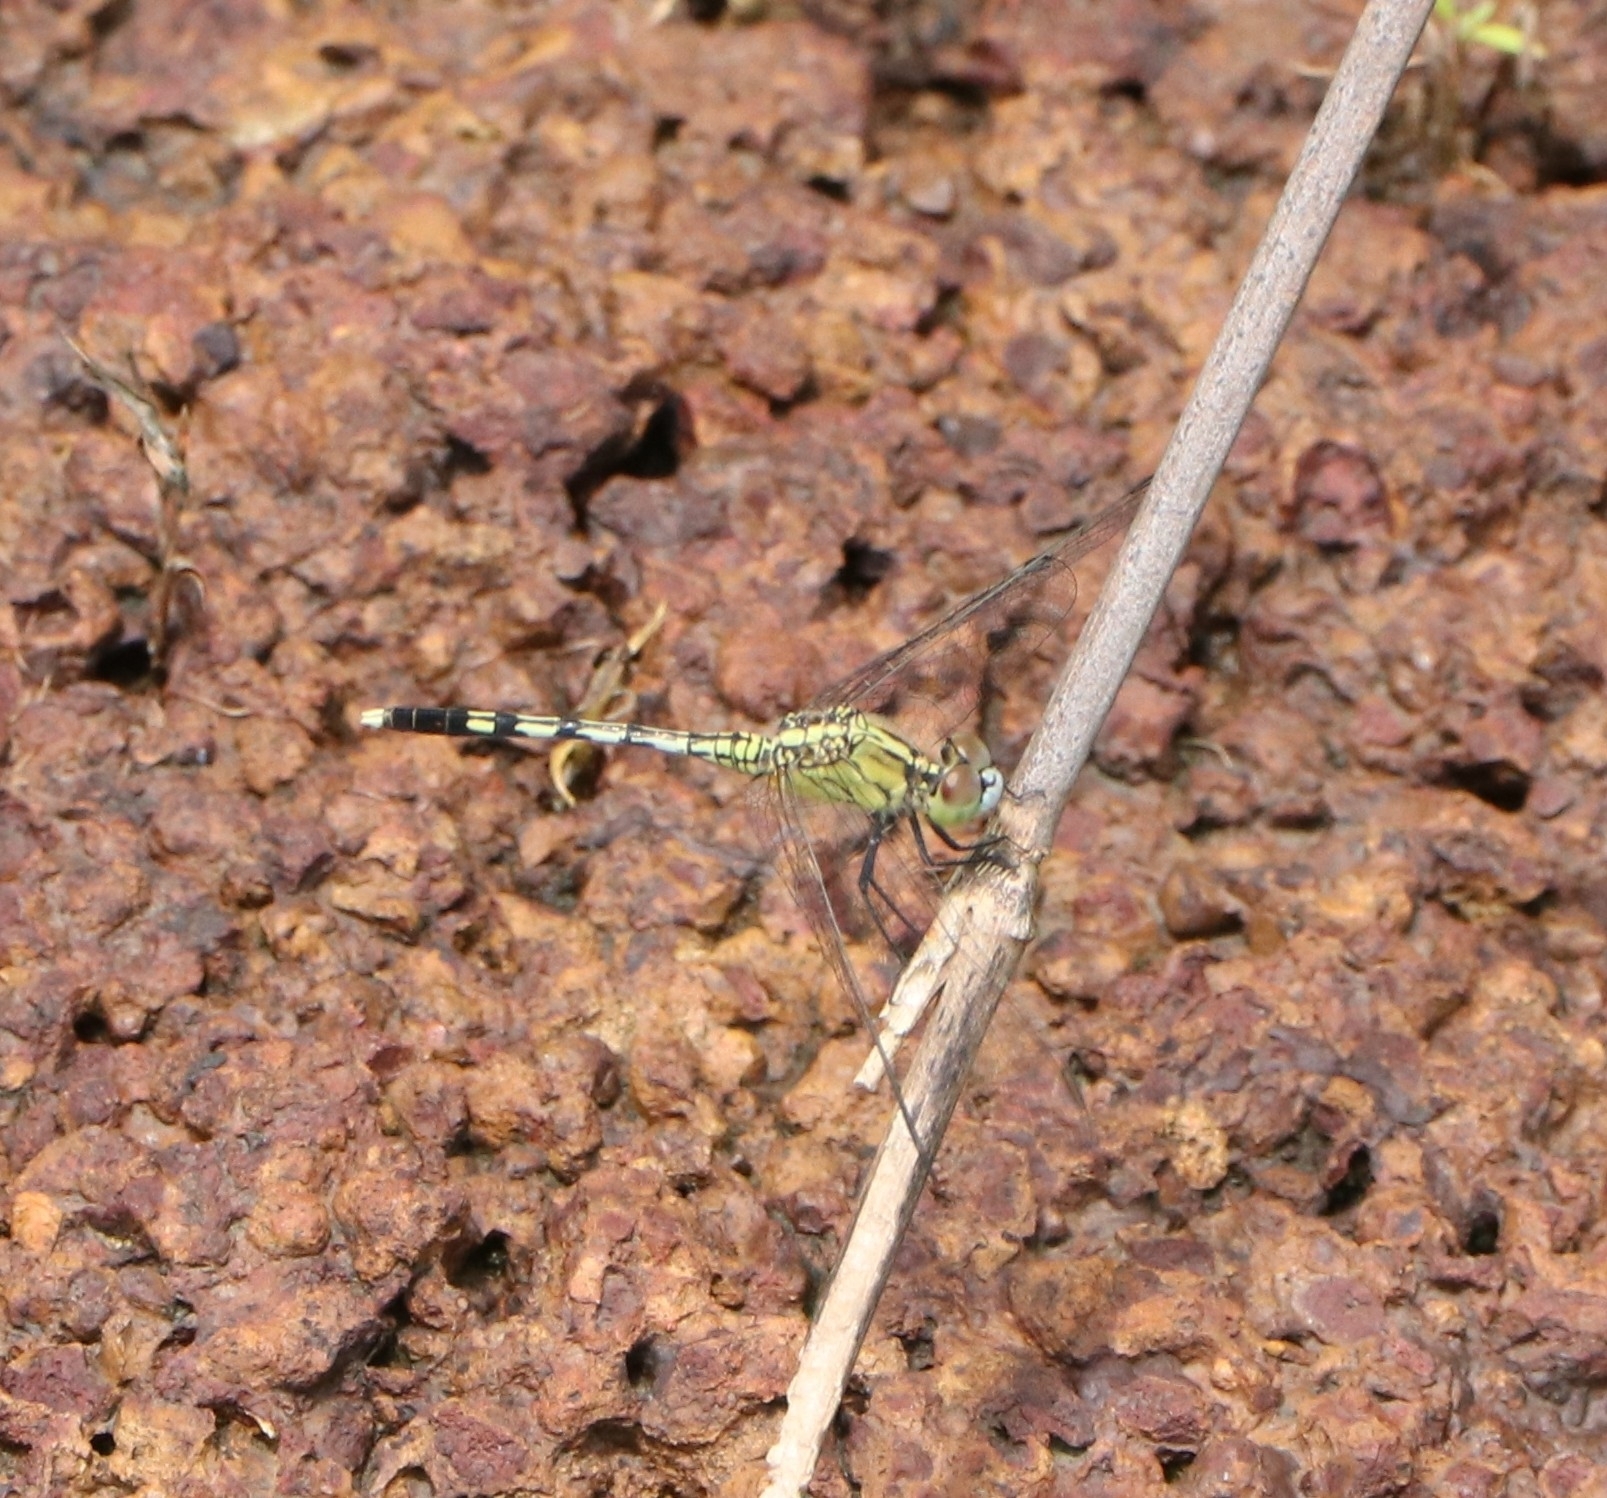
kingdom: Animalia
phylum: Arthropoda
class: Insecta
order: Odonata
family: Libellulidae
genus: Diplacodes
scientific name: Diplacodes trivialis
